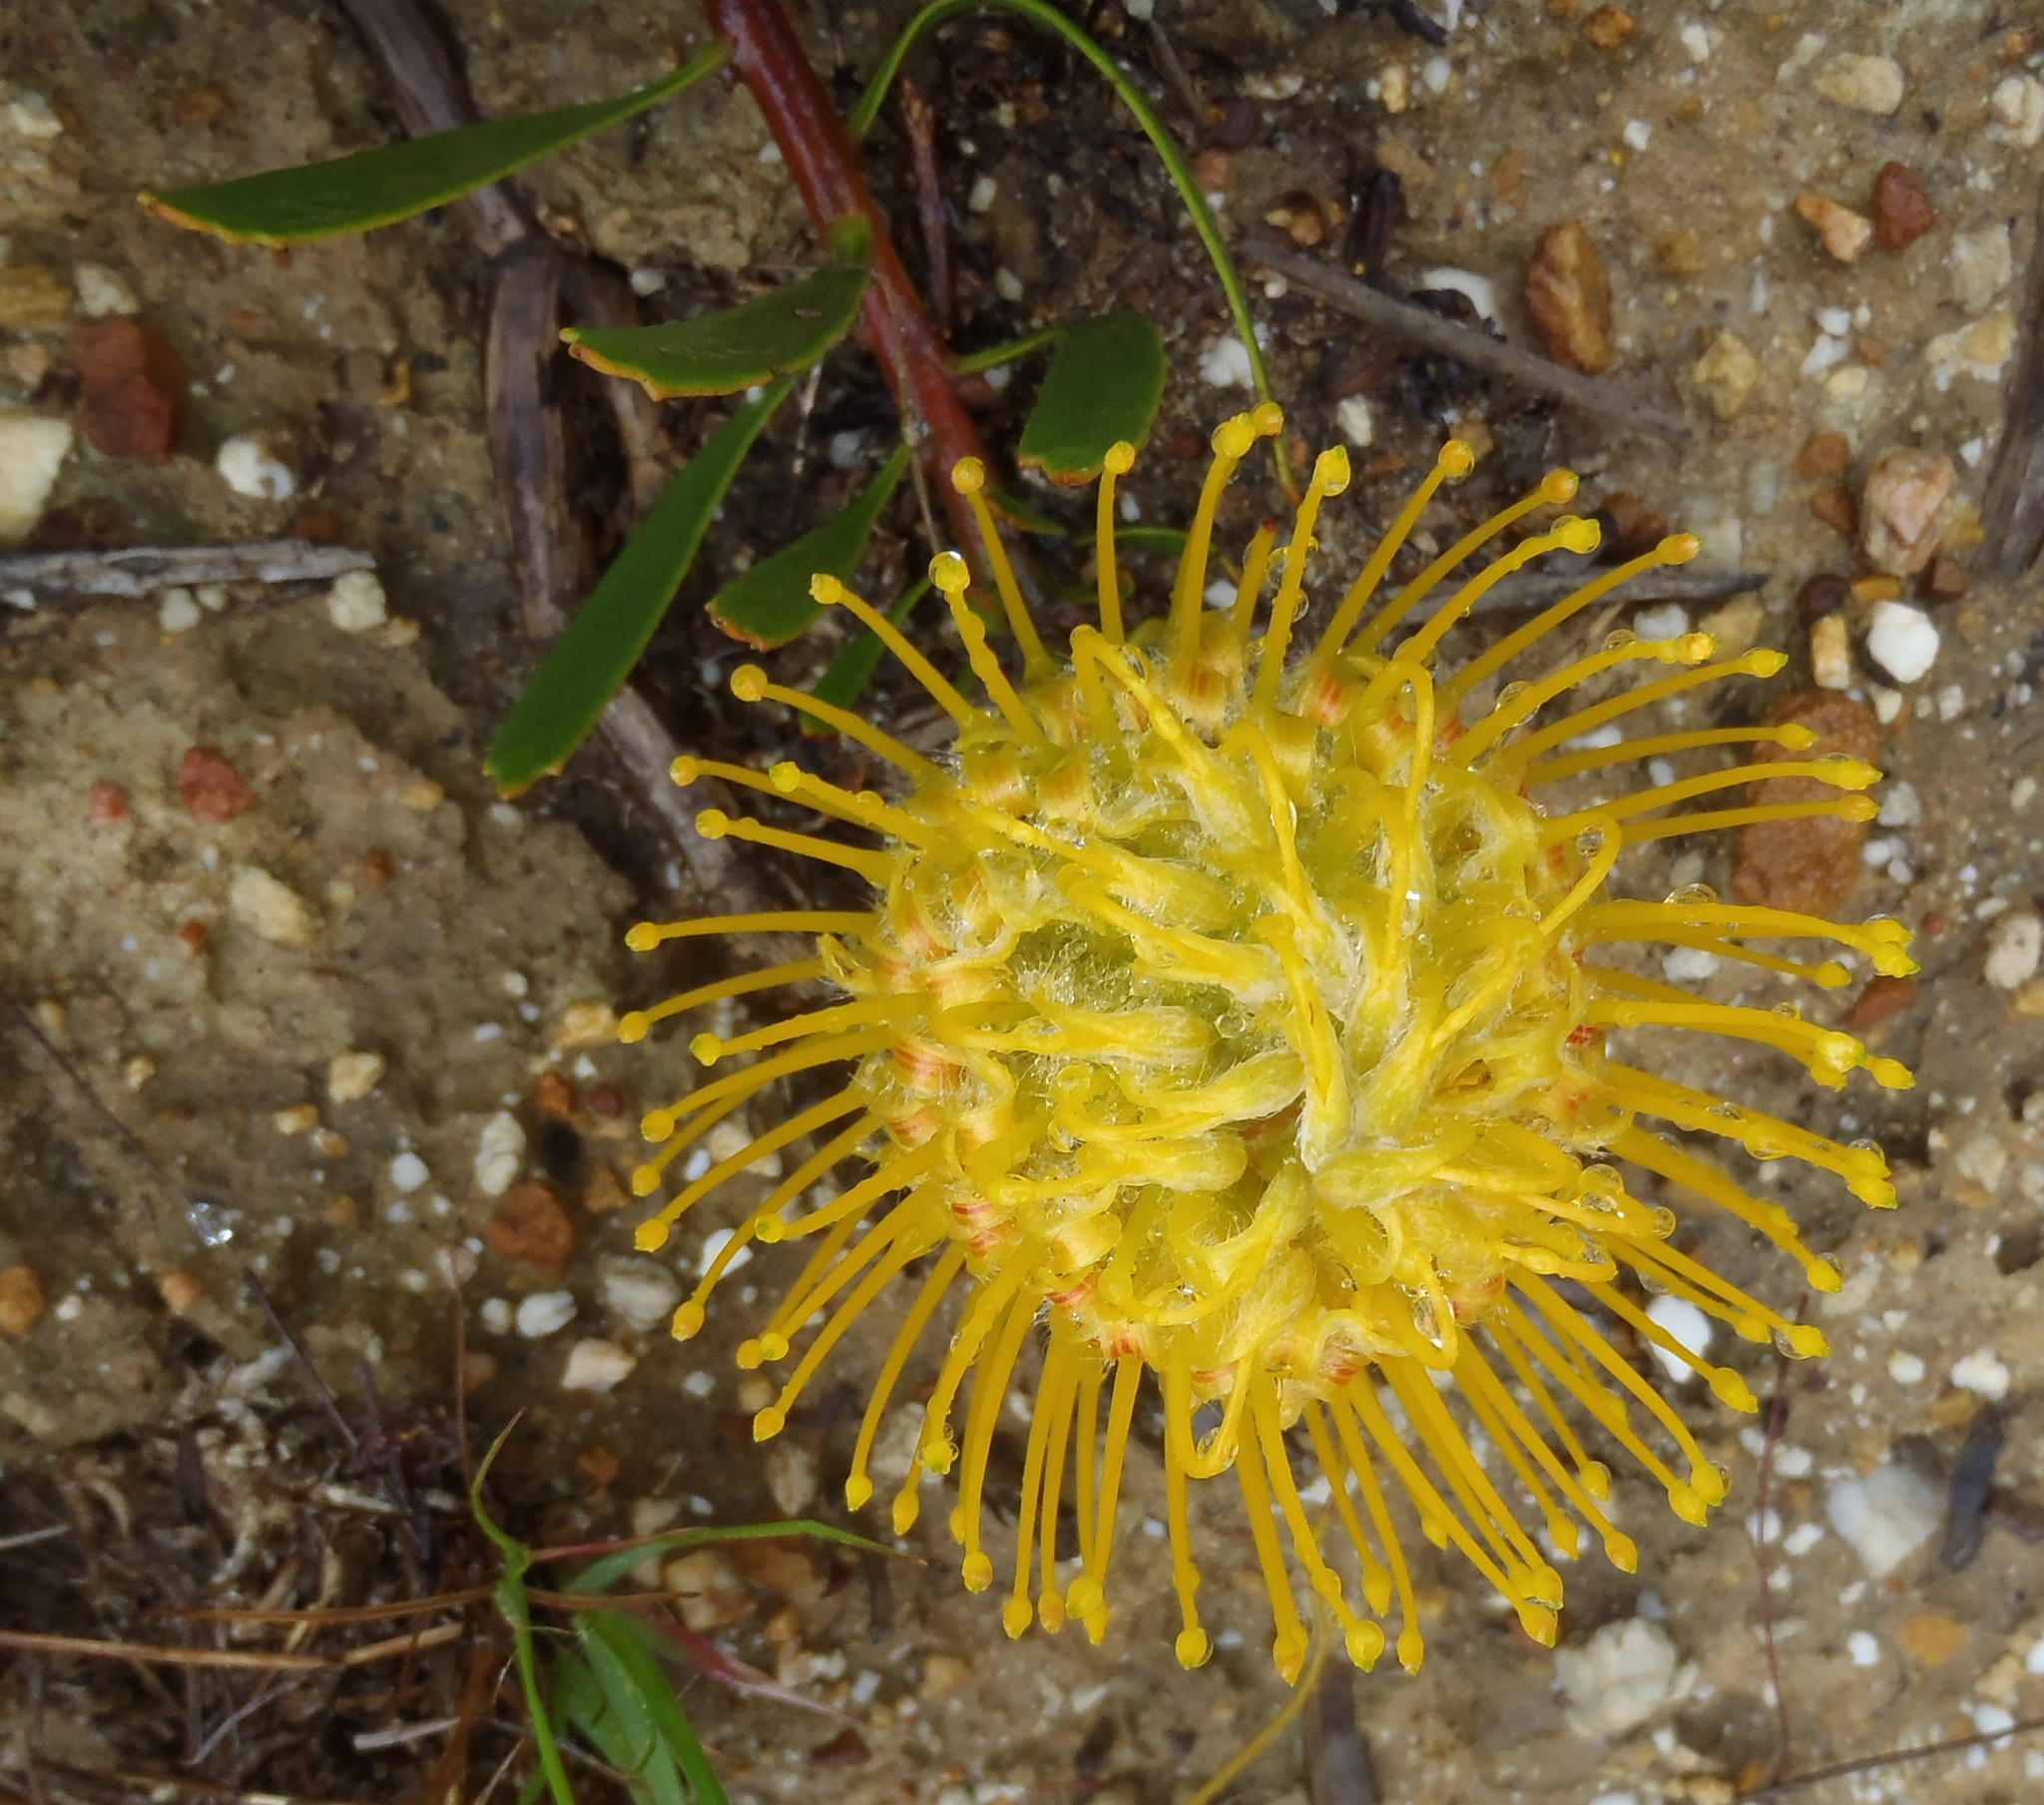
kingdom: Plantae
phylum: Tracheophyta
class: Magnoliopsida
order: Proteales
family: Proteaceae
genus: Leucospermum
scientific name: Leucospermum cuneiforme
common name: Common pincushion
